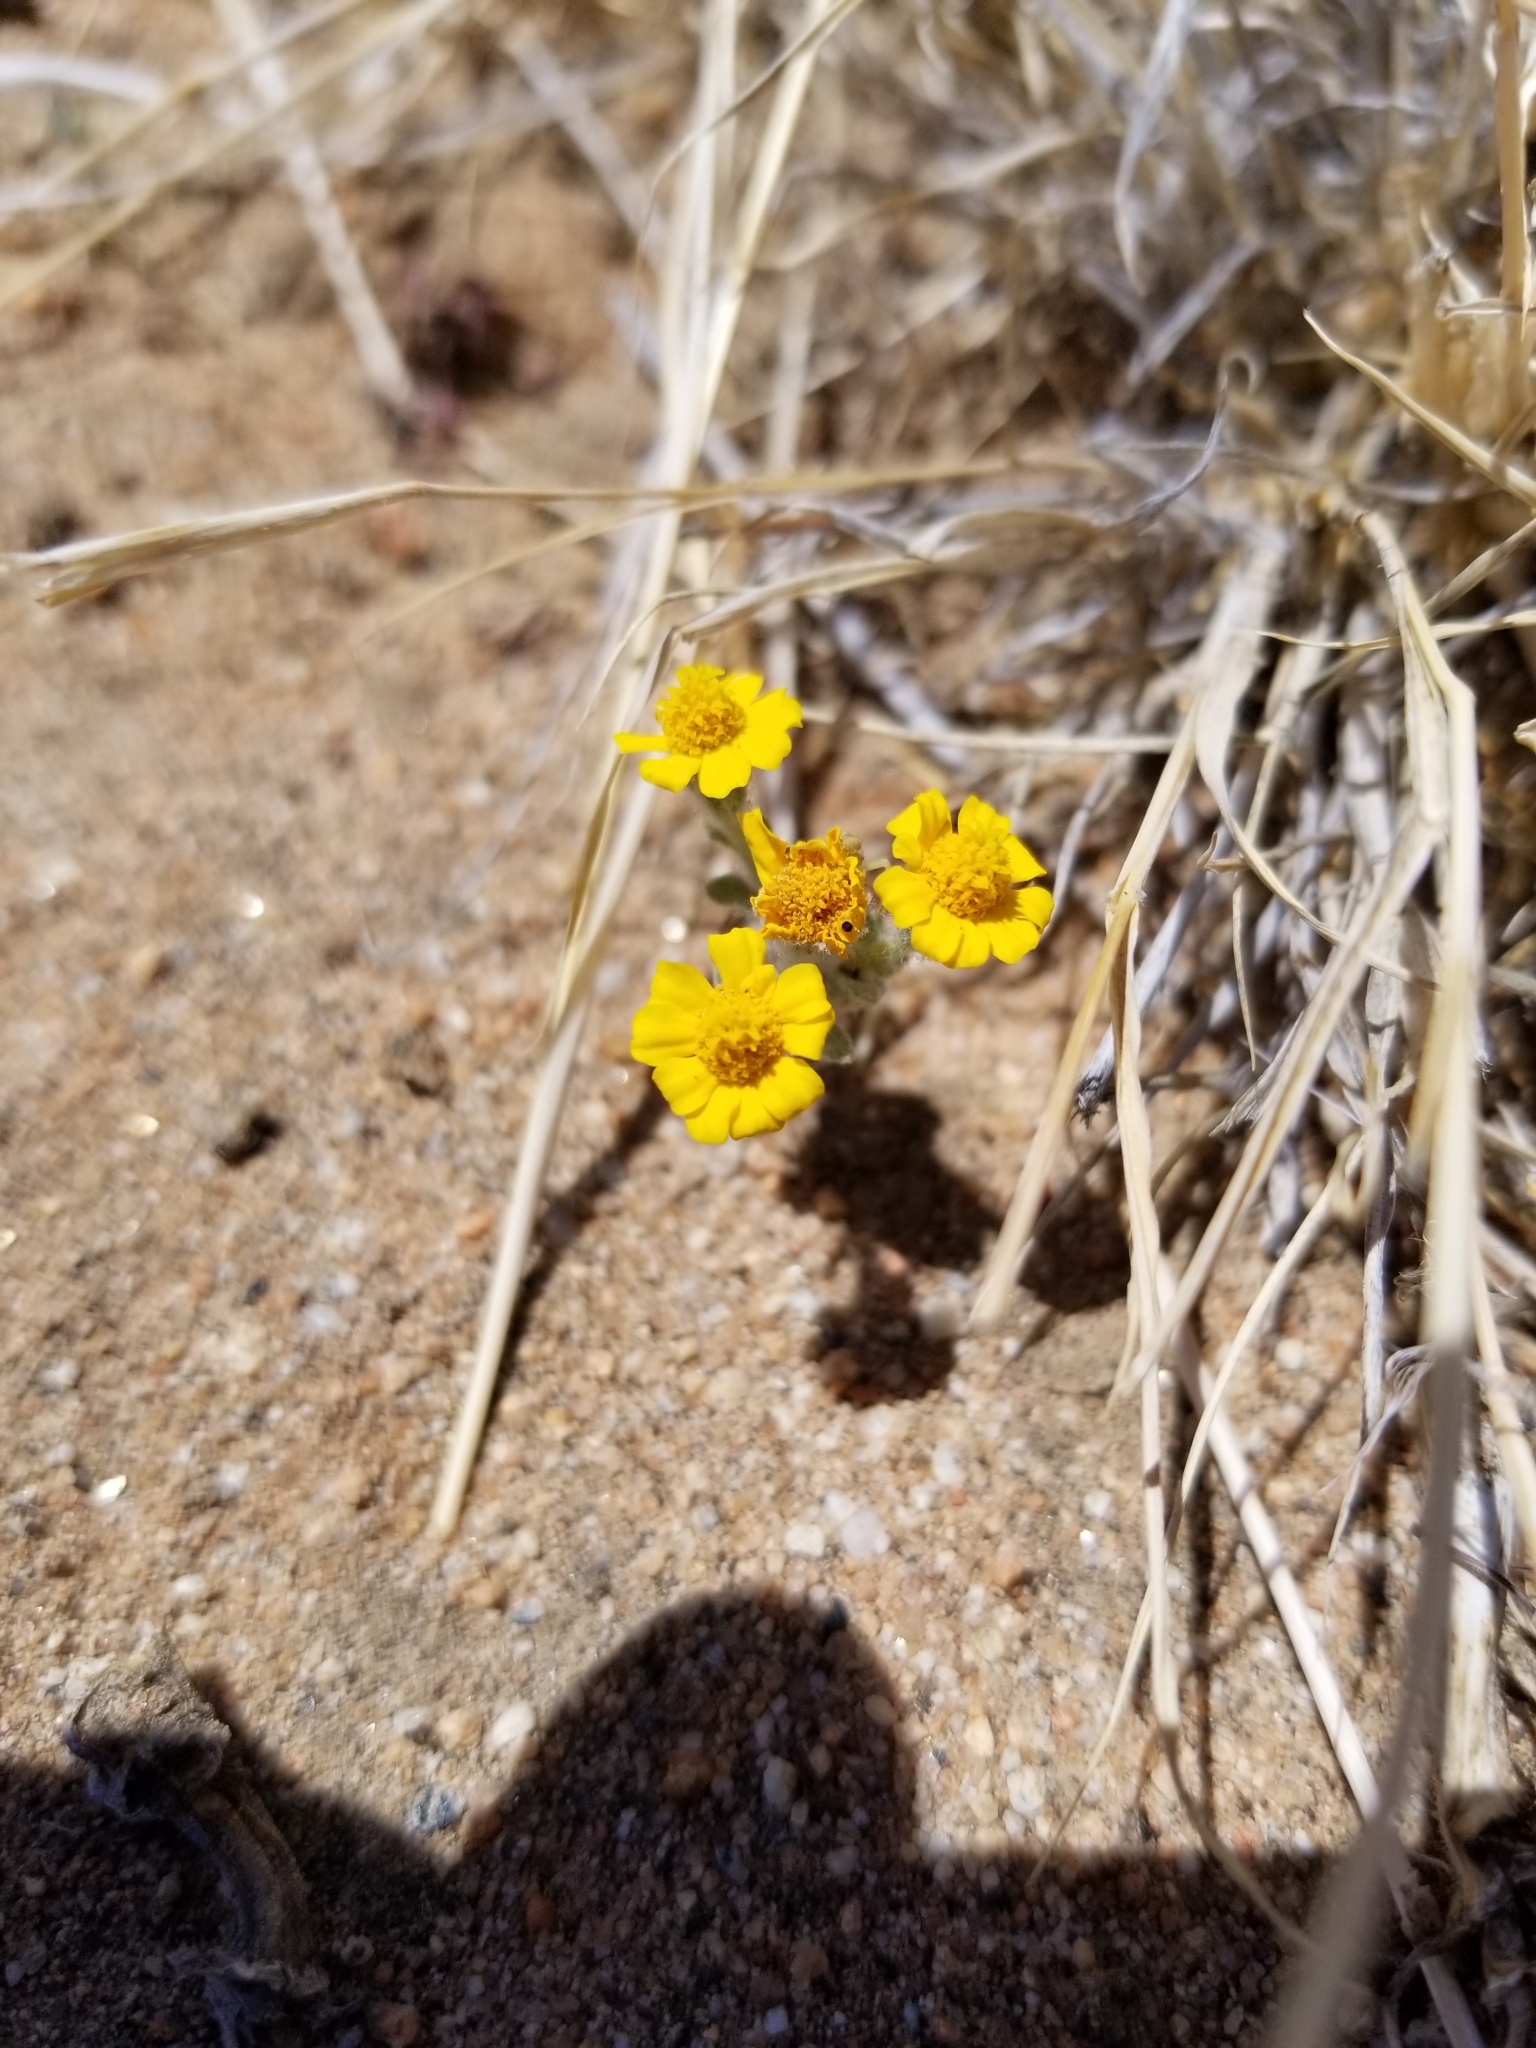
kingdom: Plantae
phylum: Tracheophyta
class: Magnoliopsida
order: Asterales
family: Asteraceae
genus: Eriophyllum
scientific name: Eriophyllum wallacei
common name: Wallace's woolly daisy
